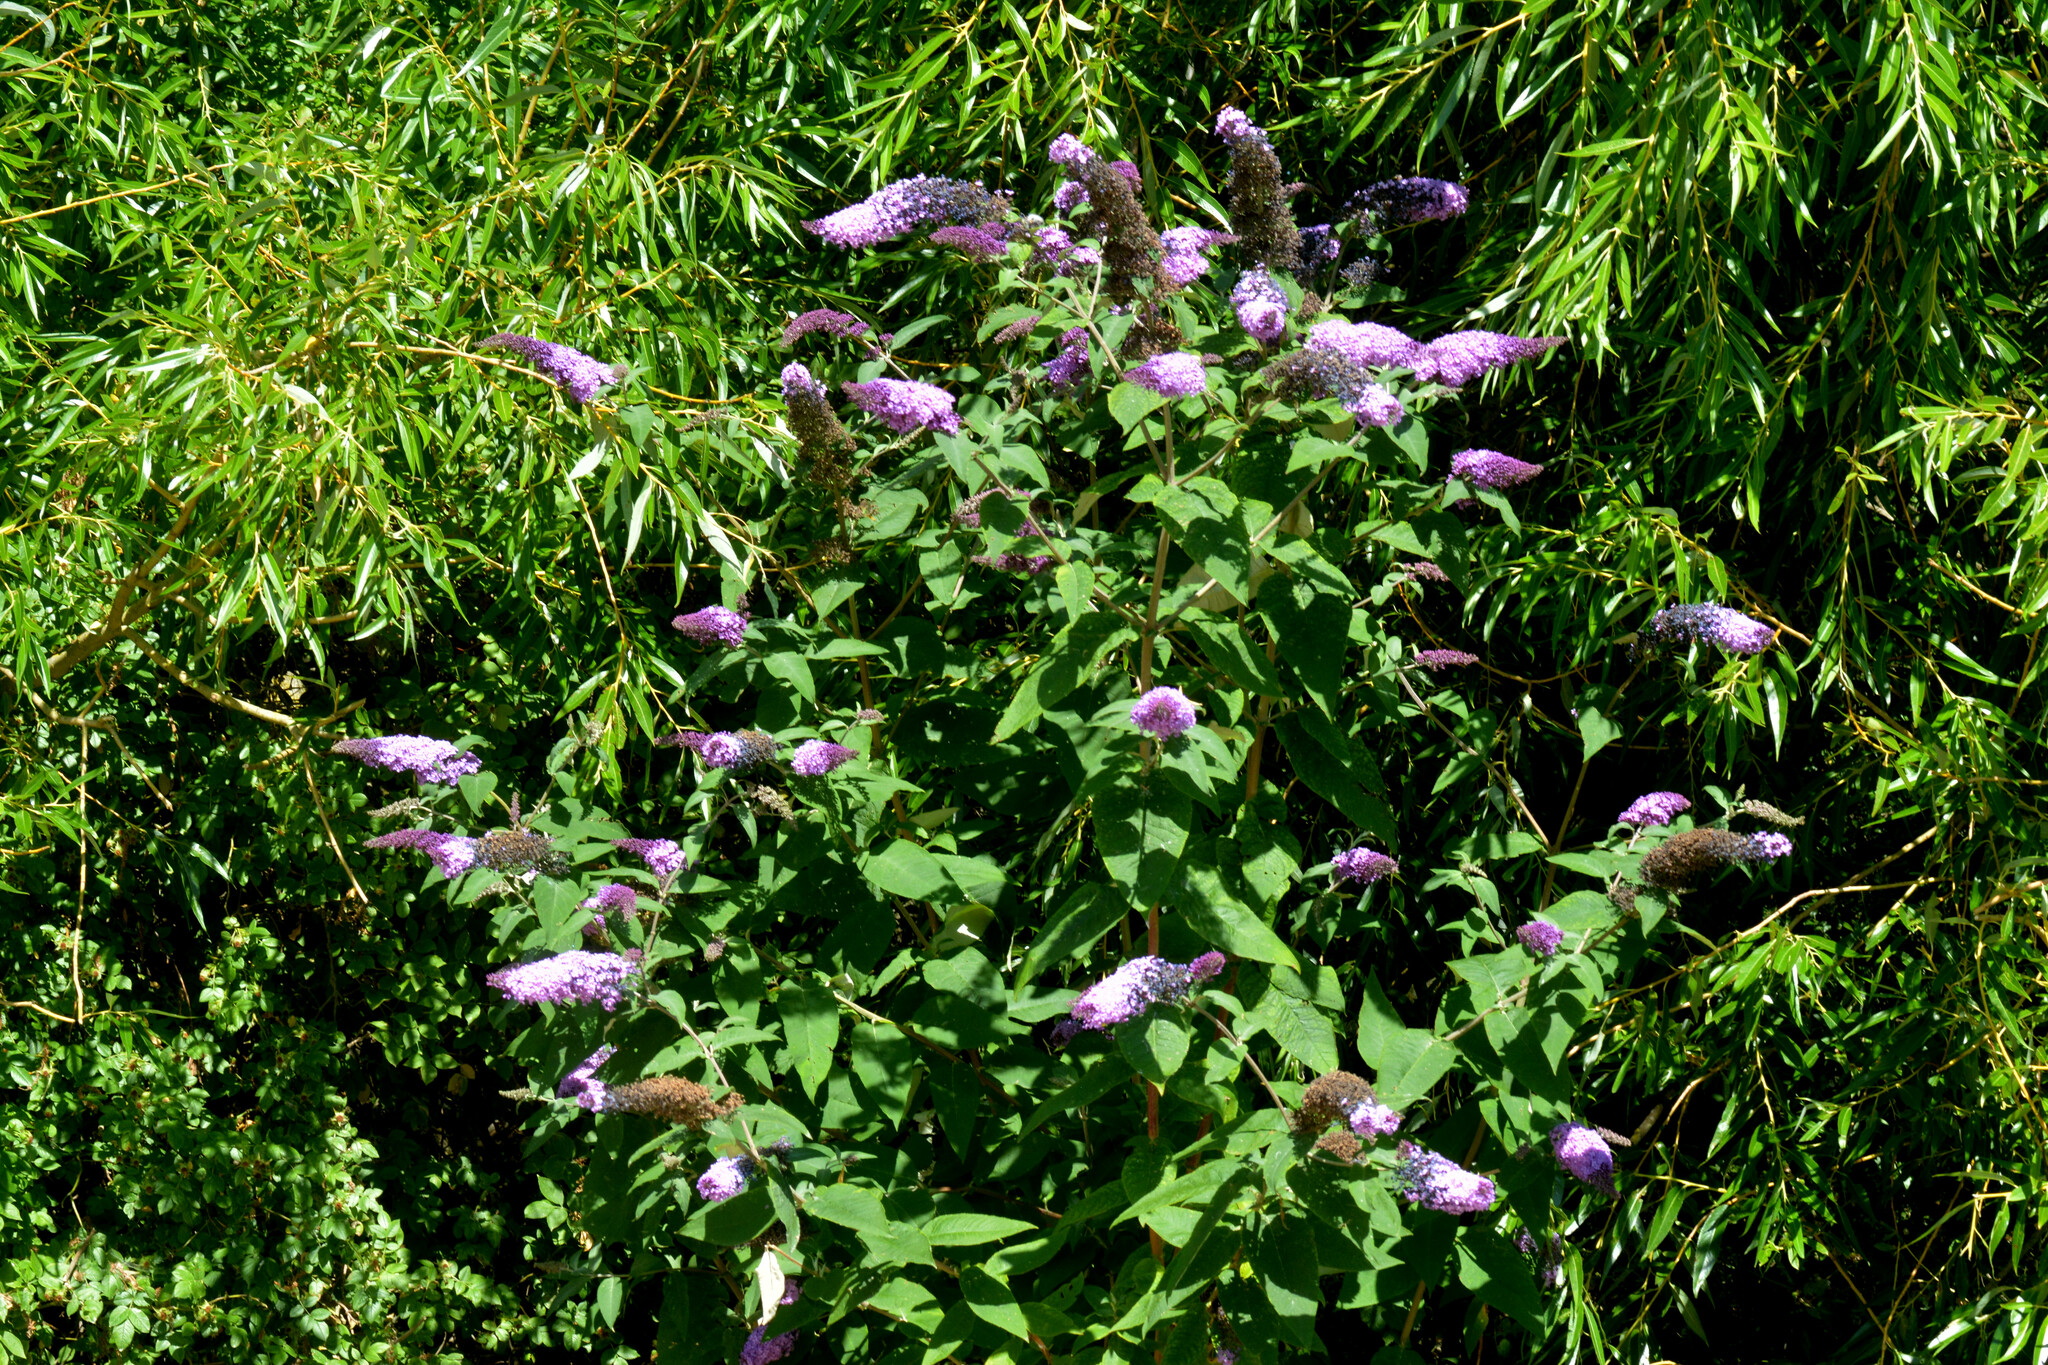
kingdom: Plantae
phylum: Tracheophyta
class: Magnoliopsida
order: Lamiales
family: Scrophulariaceae
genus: Buddleja
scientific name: Buddleja davidii
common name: Butterfly-bush
